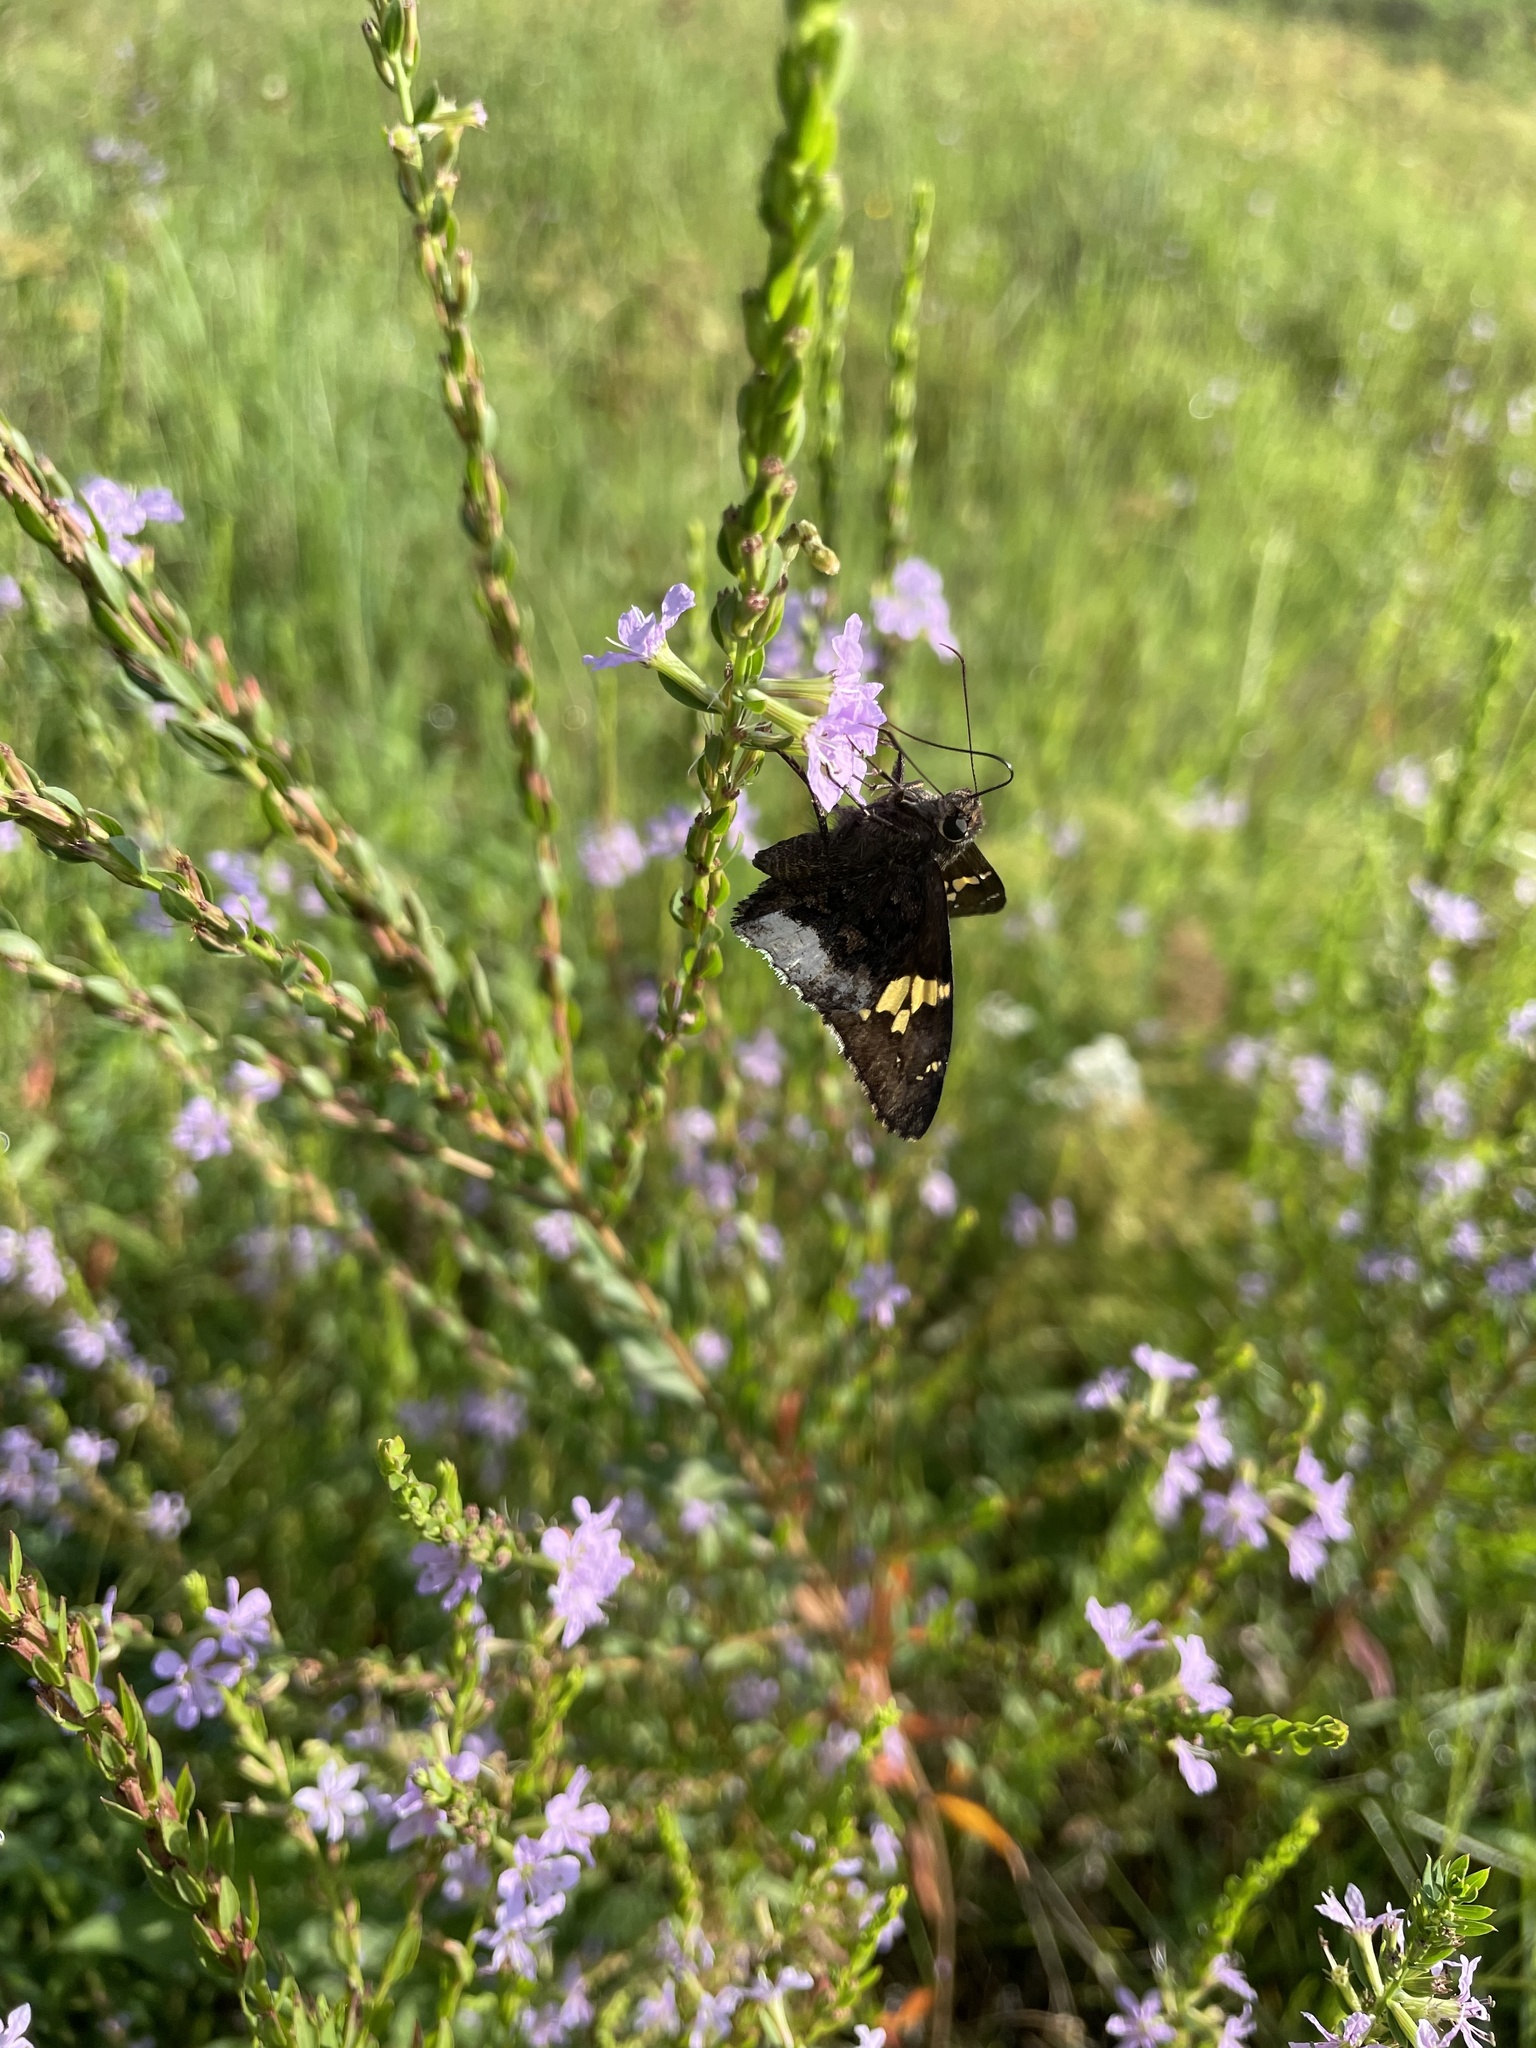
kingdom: Animalia
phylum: Arthropoda
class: Insecta
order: Lepidoptera
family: Hesperiidae
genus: Thorybes
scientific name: Thorybes lyciades
